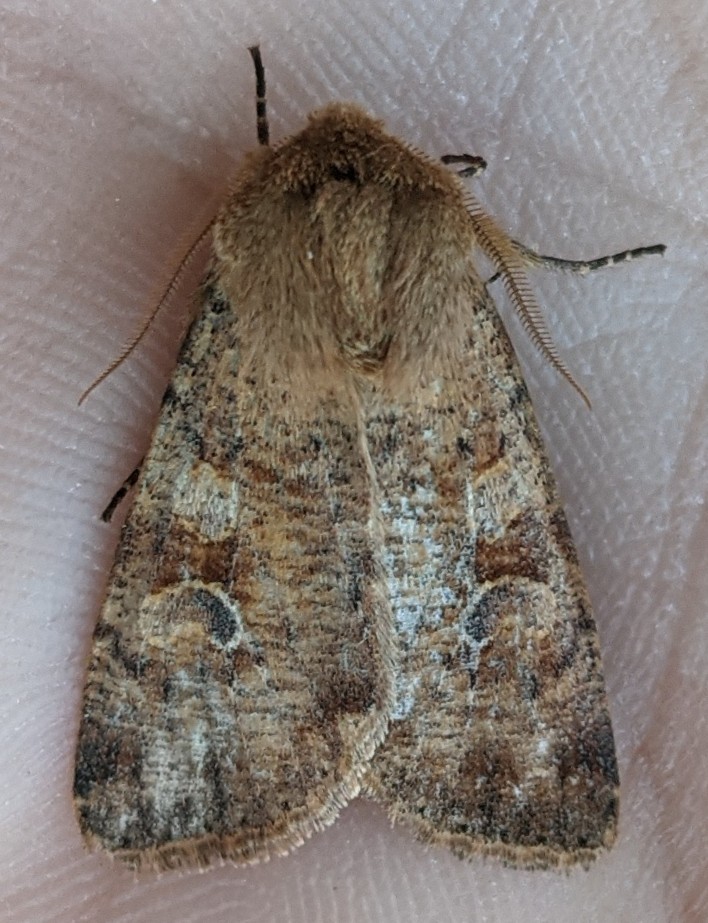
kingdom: Animalia
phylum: Arthropoda
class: Insecta
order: Lepidoptera
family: Noctuidae
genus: Orthosia
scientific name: Orthosia rubescens
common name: Ruby quaker
